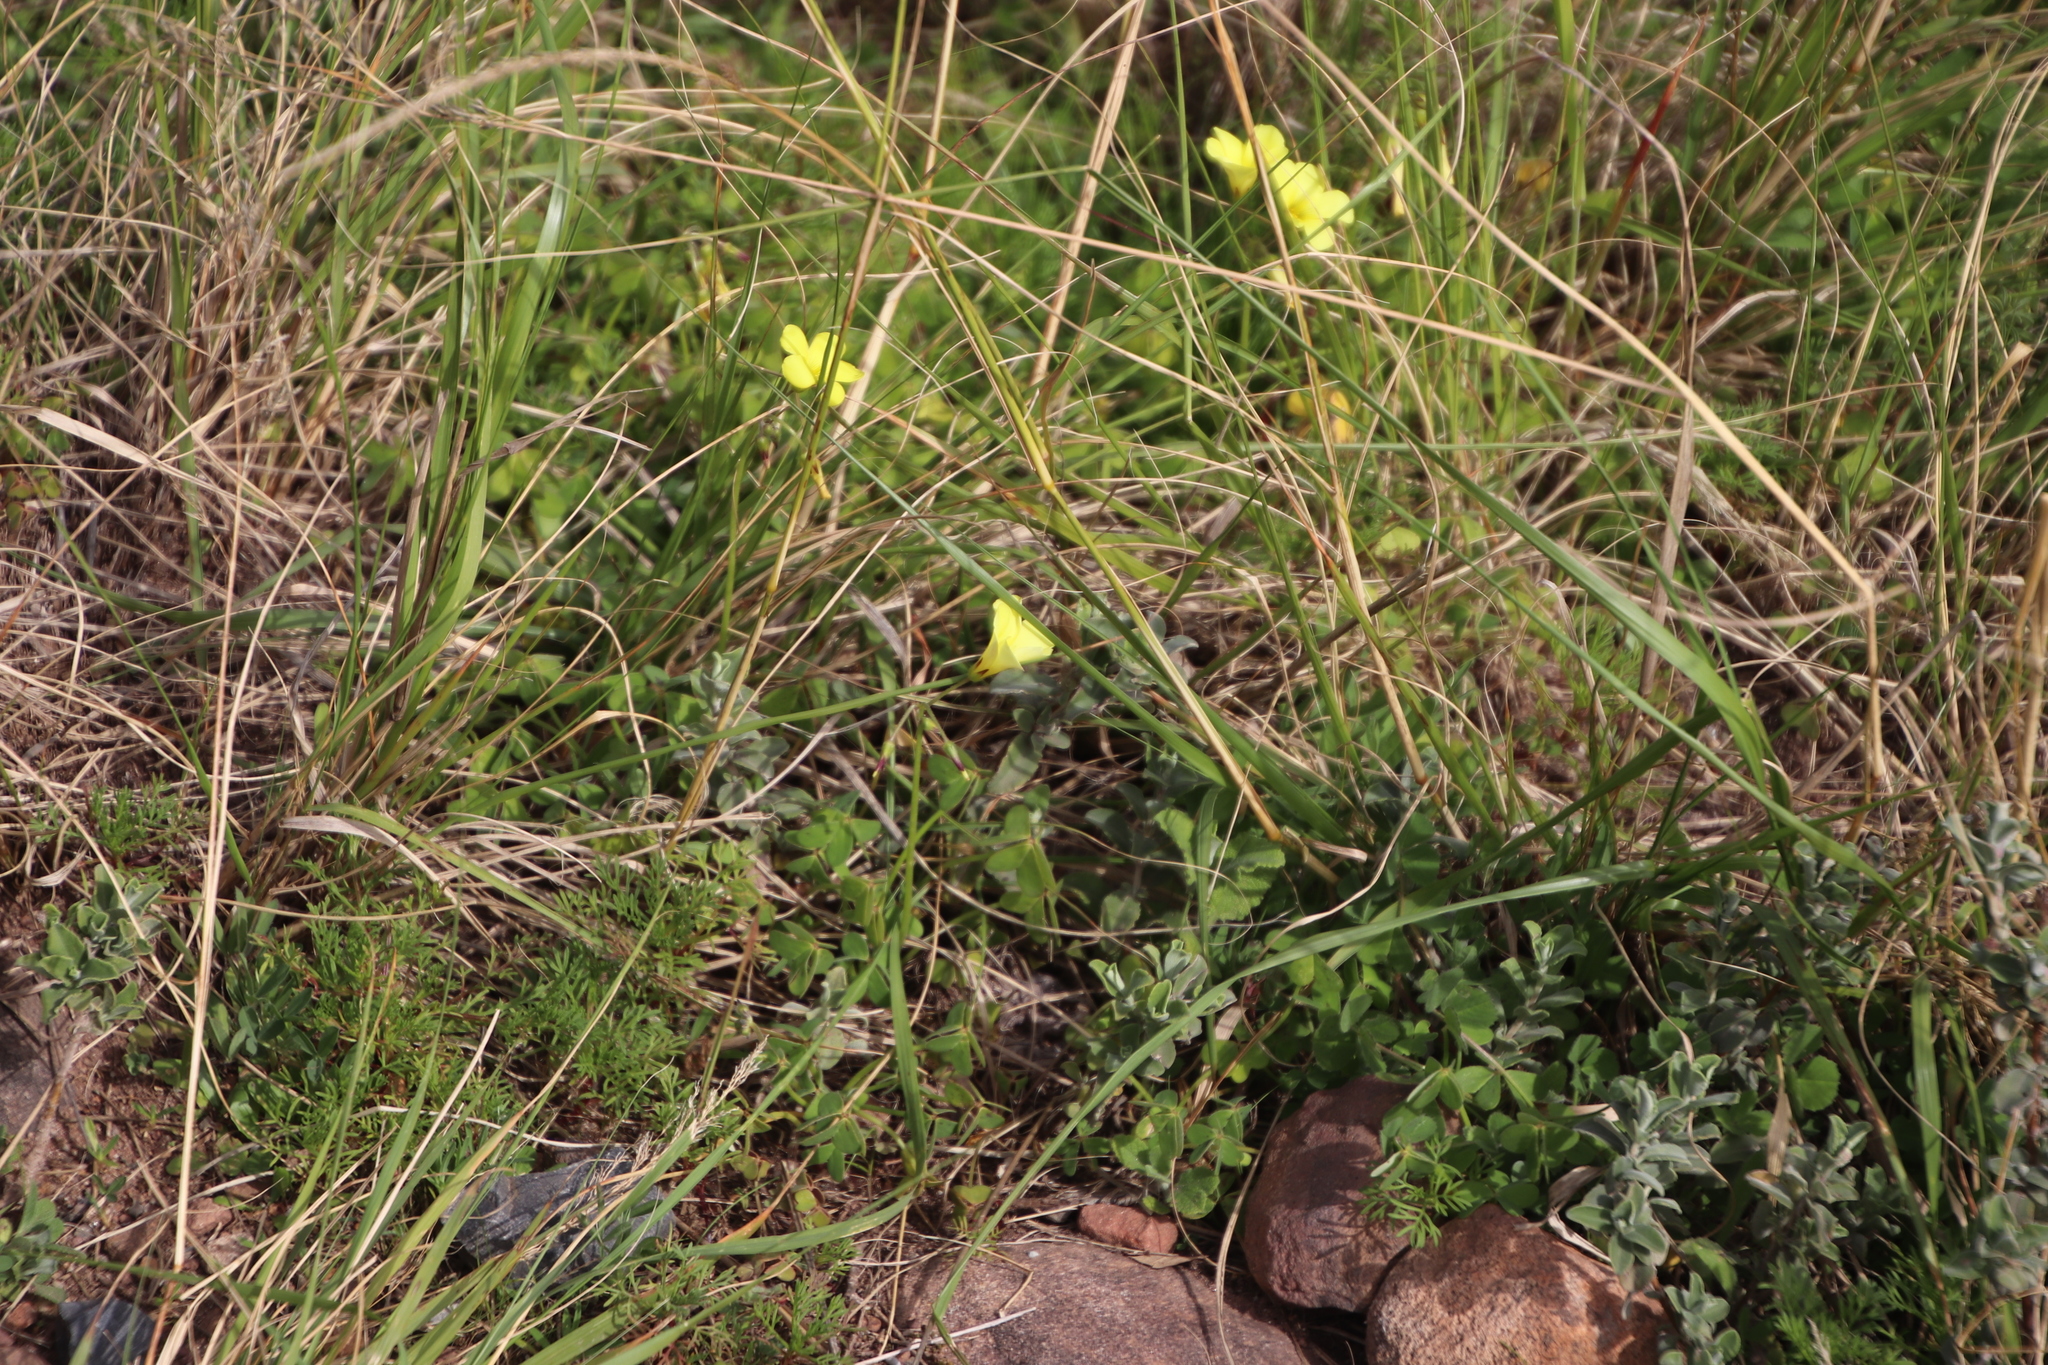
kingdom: Plantae
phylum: Tracheophyta
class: Magnoliopsida
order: Oxalidales
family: Oxalidaceae
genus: Oxalis
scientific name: Oxalis pes-caprae
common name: Bermuda-buttercup
